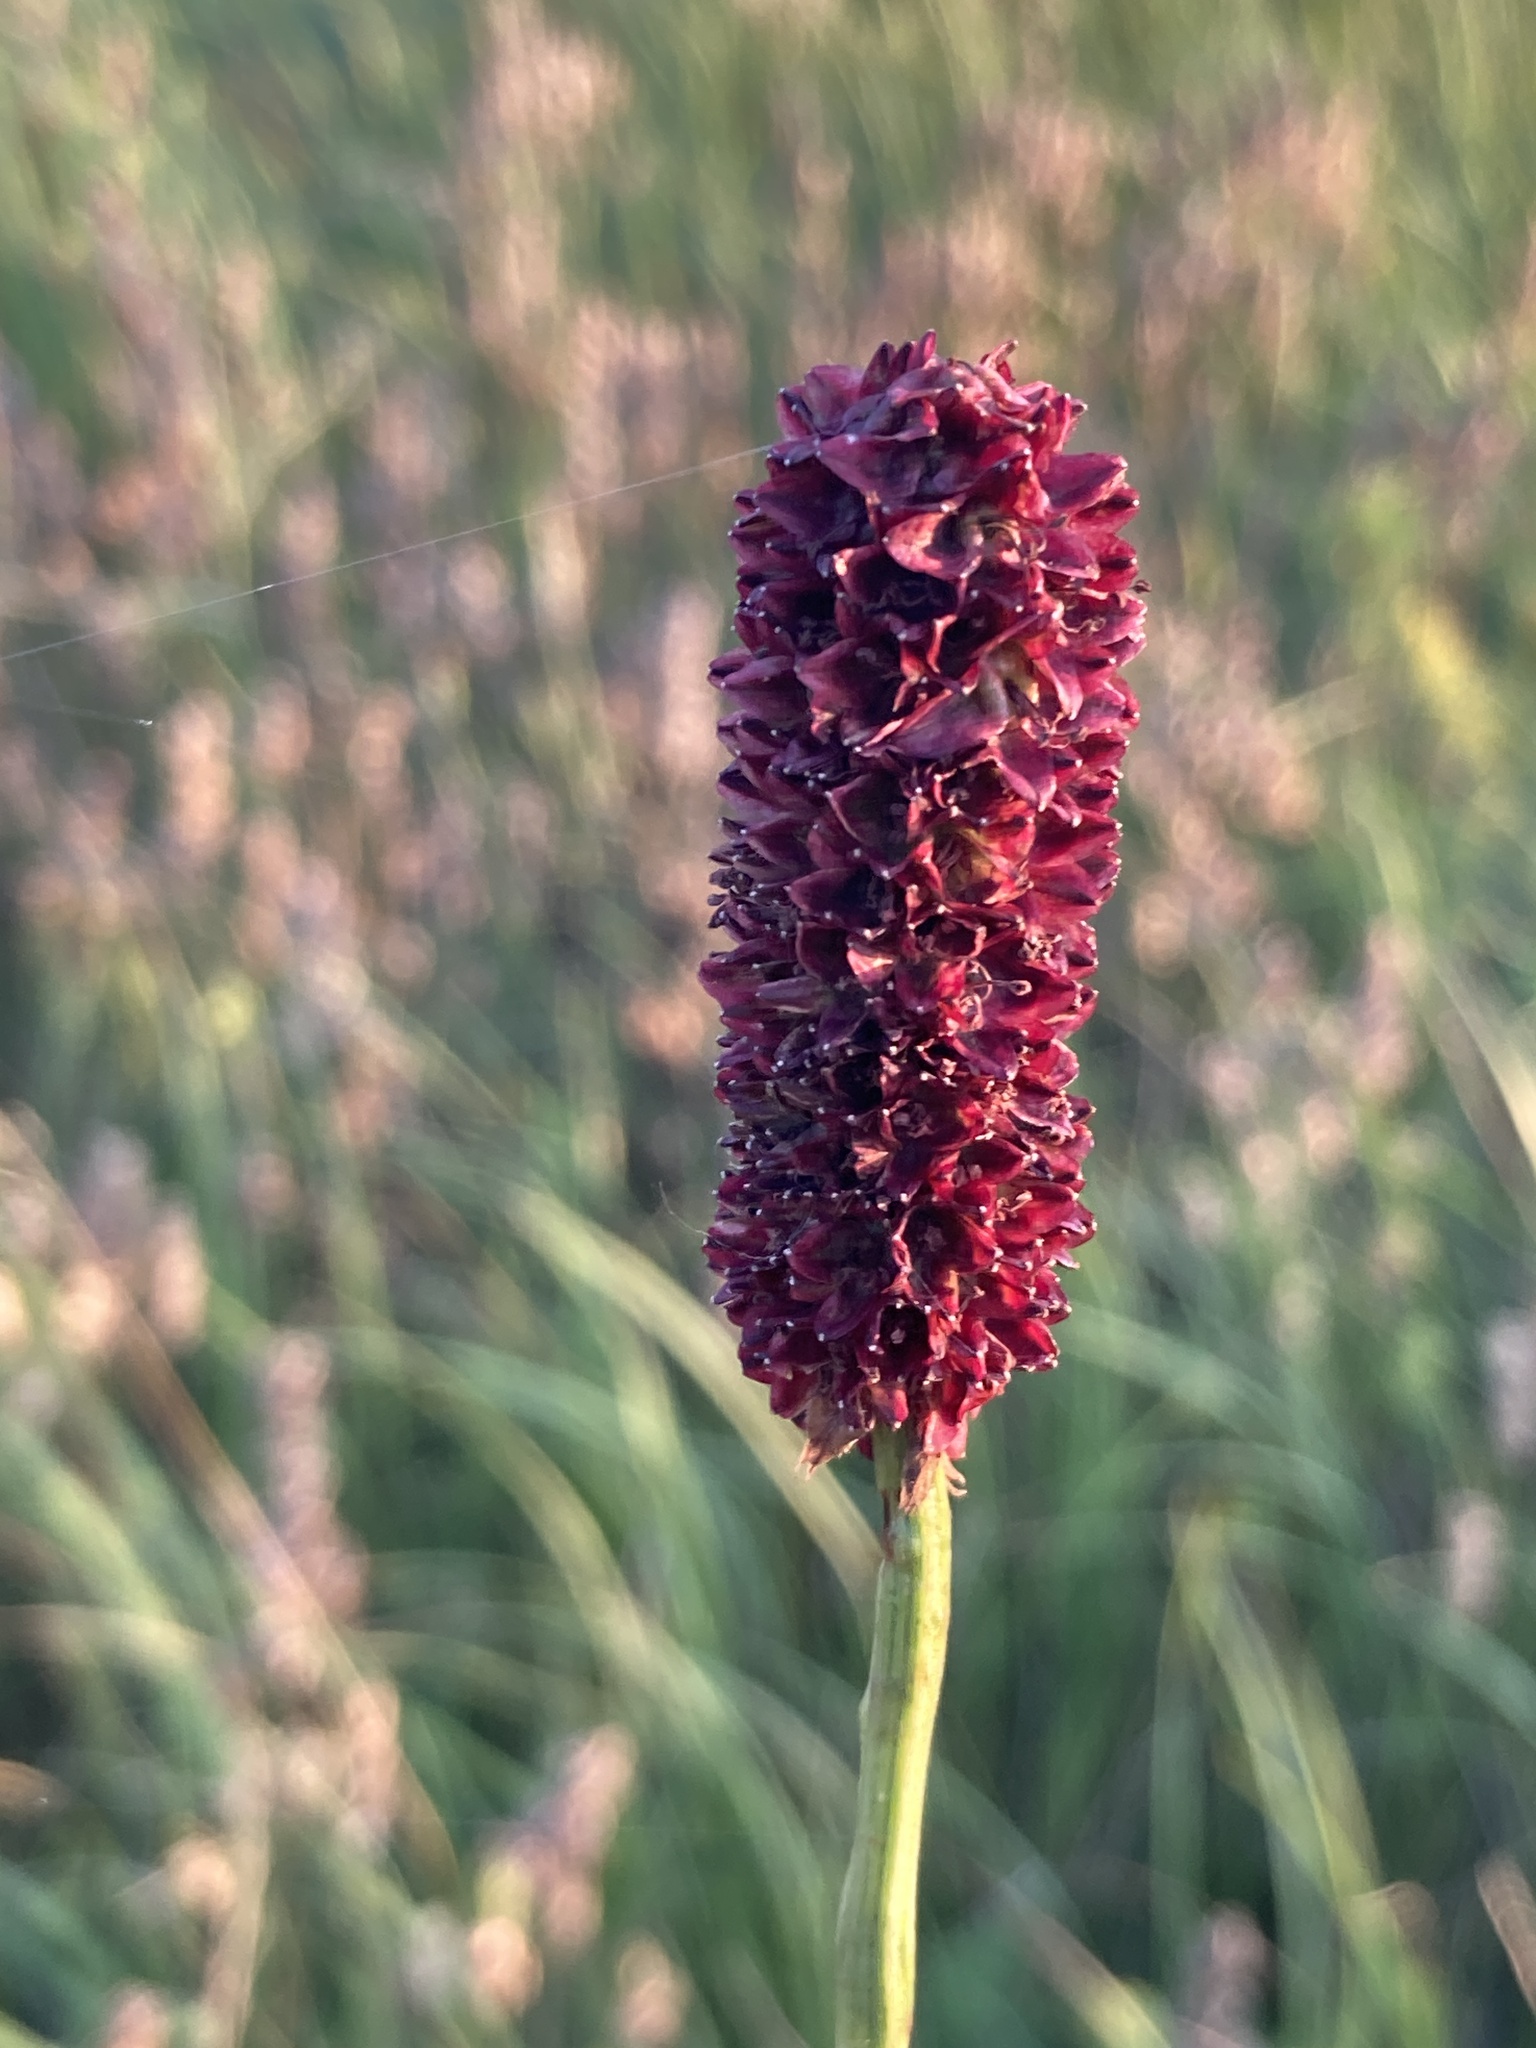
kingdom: Plantae
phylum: Tracheophyta
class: Magnoliopsida
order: Rosales
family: Rosaceae
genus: Sanguisorba
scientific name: Sanguisorba officinalis
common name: Great burnet
